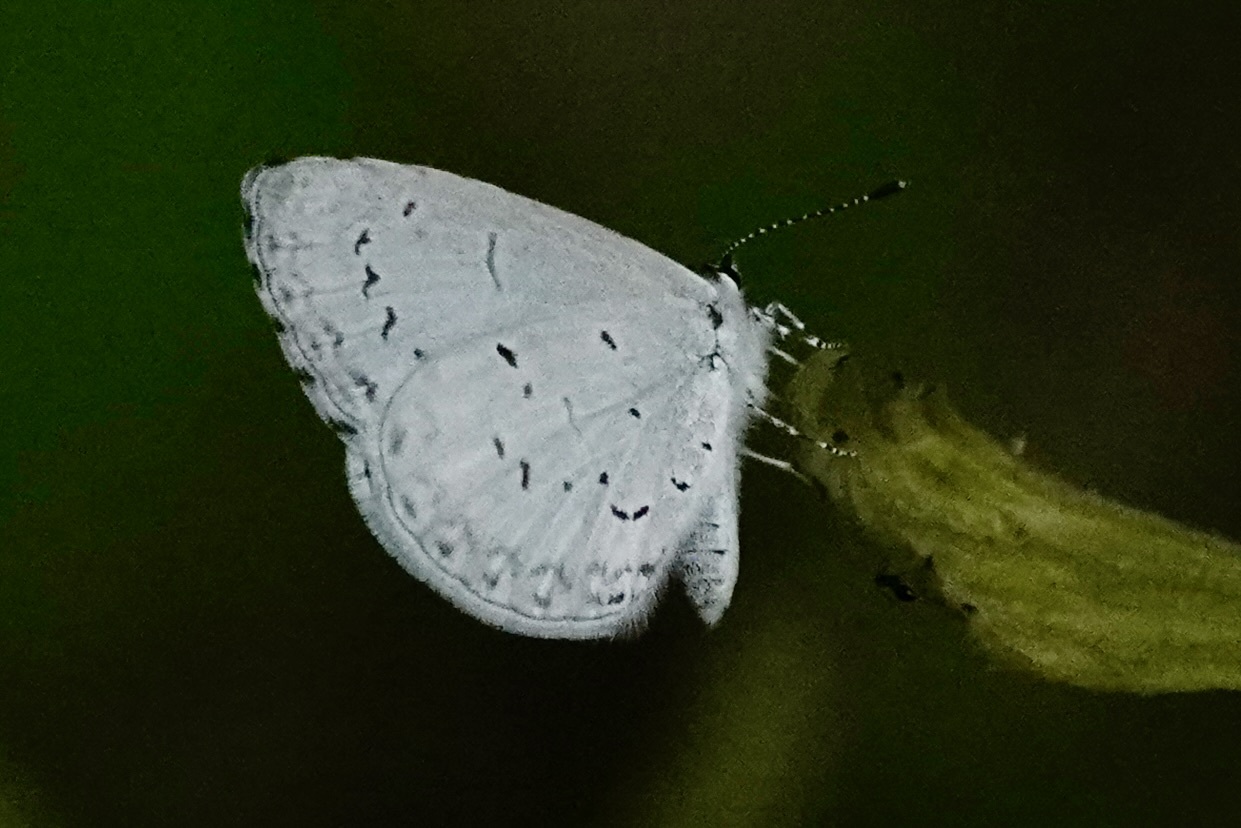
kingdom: Animalia
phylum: Arthropoda
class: Insecta
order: Lepidoptera
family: Lycaenidae
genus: Cyaniris
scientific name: Cyaniris neglecta
